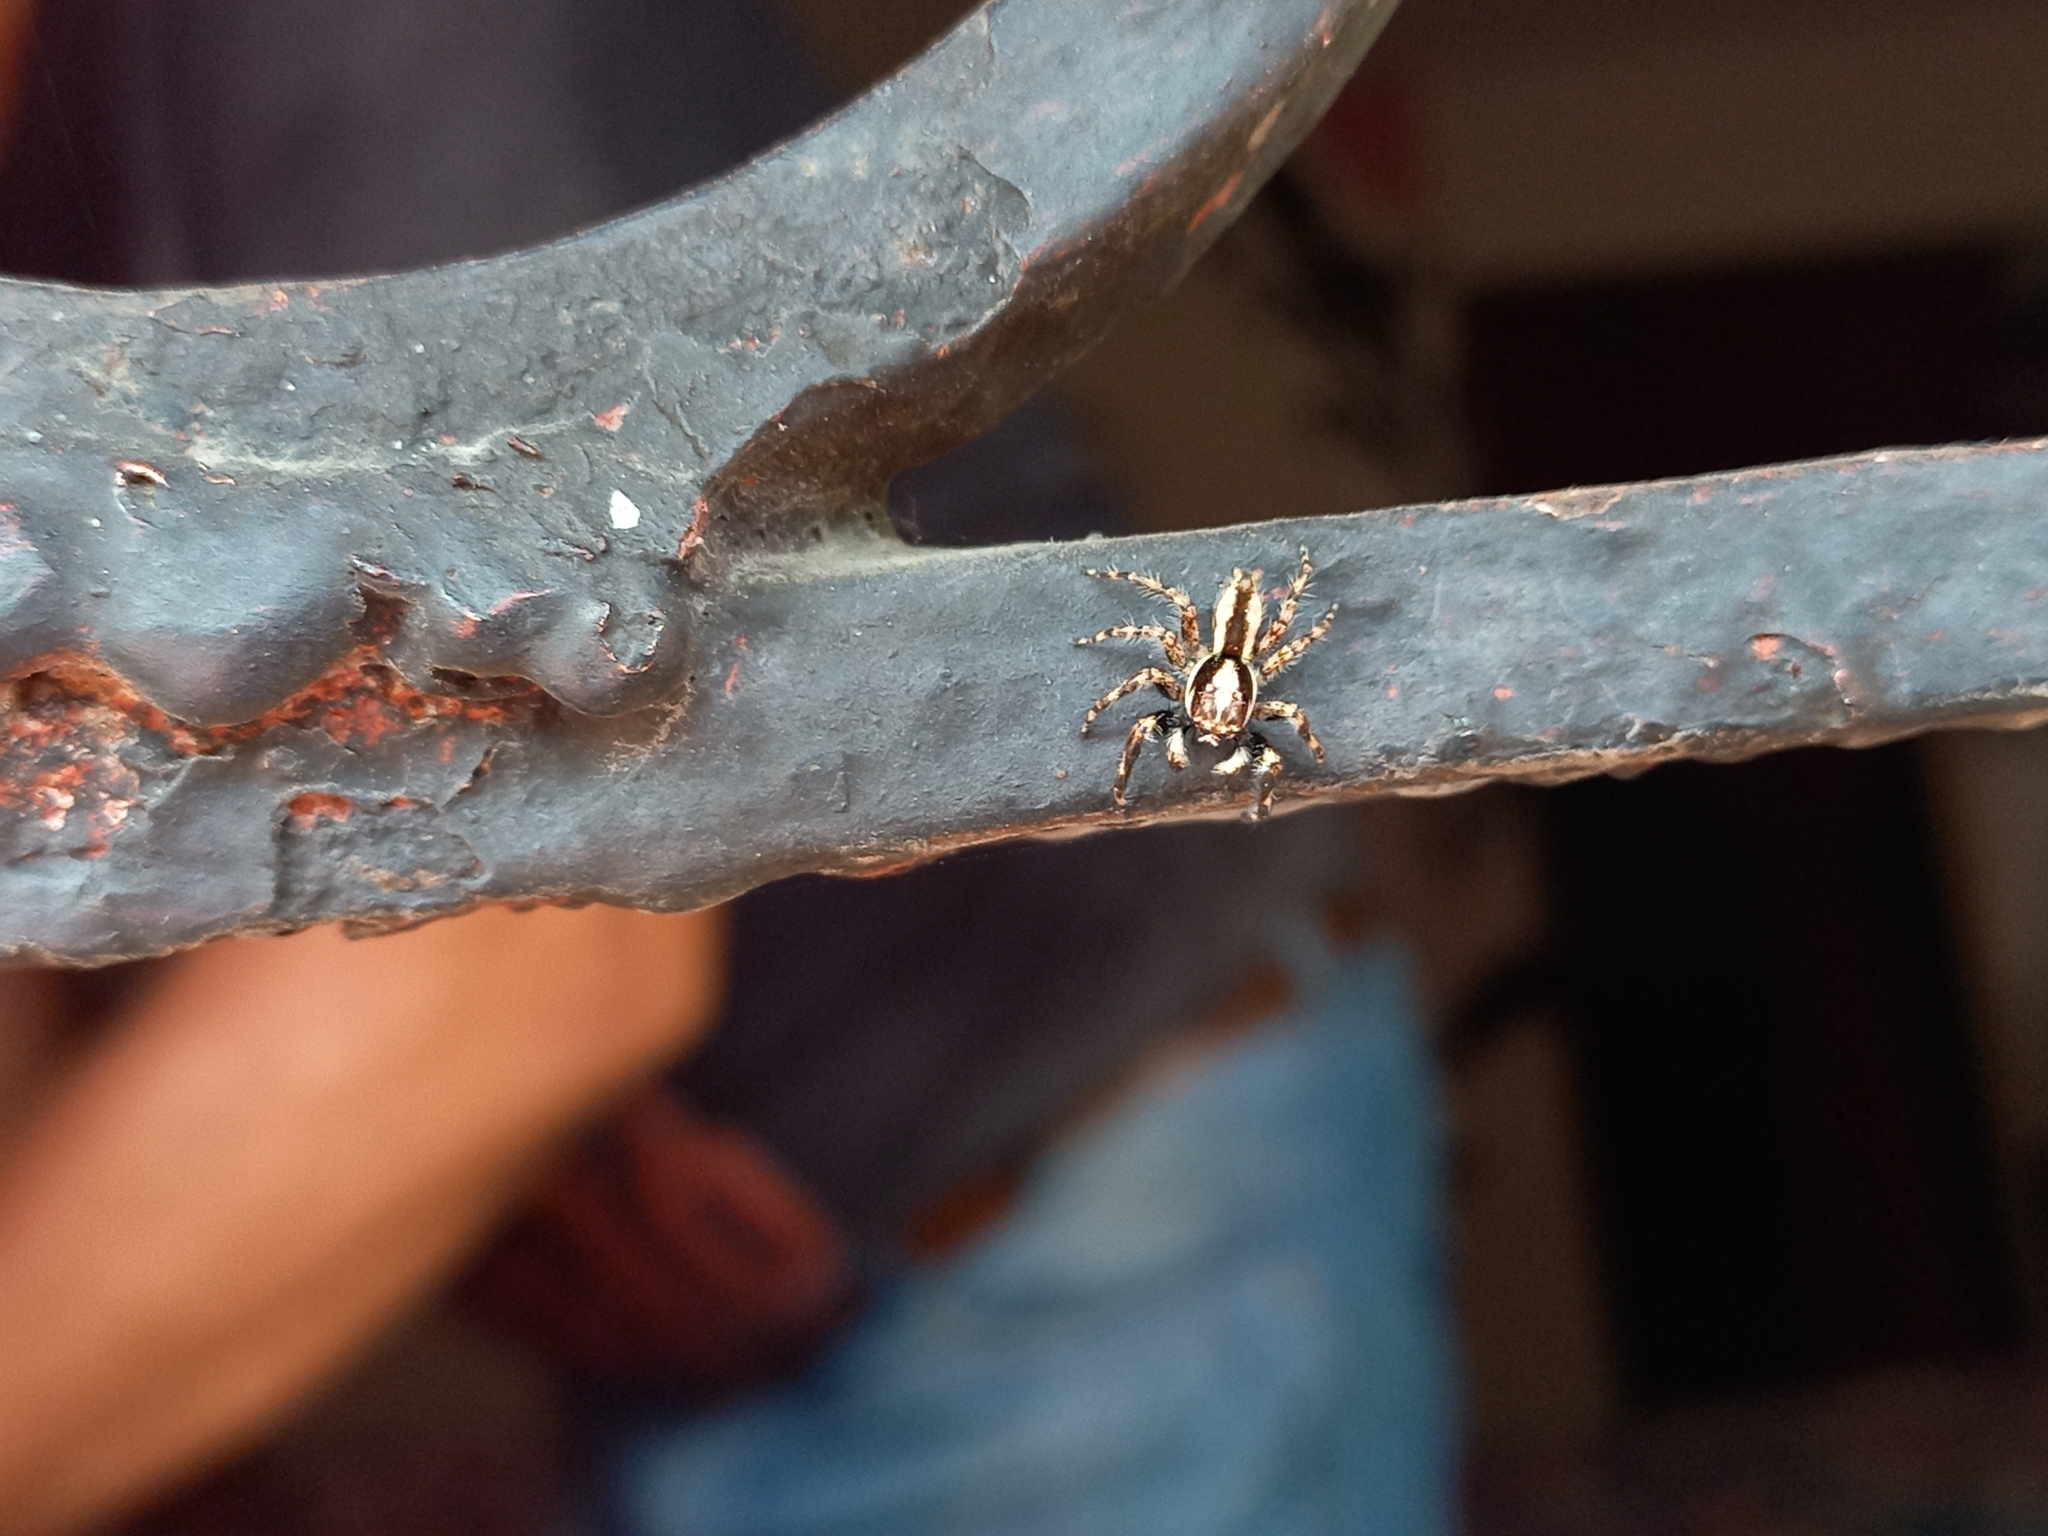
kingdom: Animalia
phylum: Arthropoda
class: Arachnida
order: Araneae
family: Salticidae
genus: Menemerus
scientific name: Menemerus bivittatus
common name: Gray wall jumper
